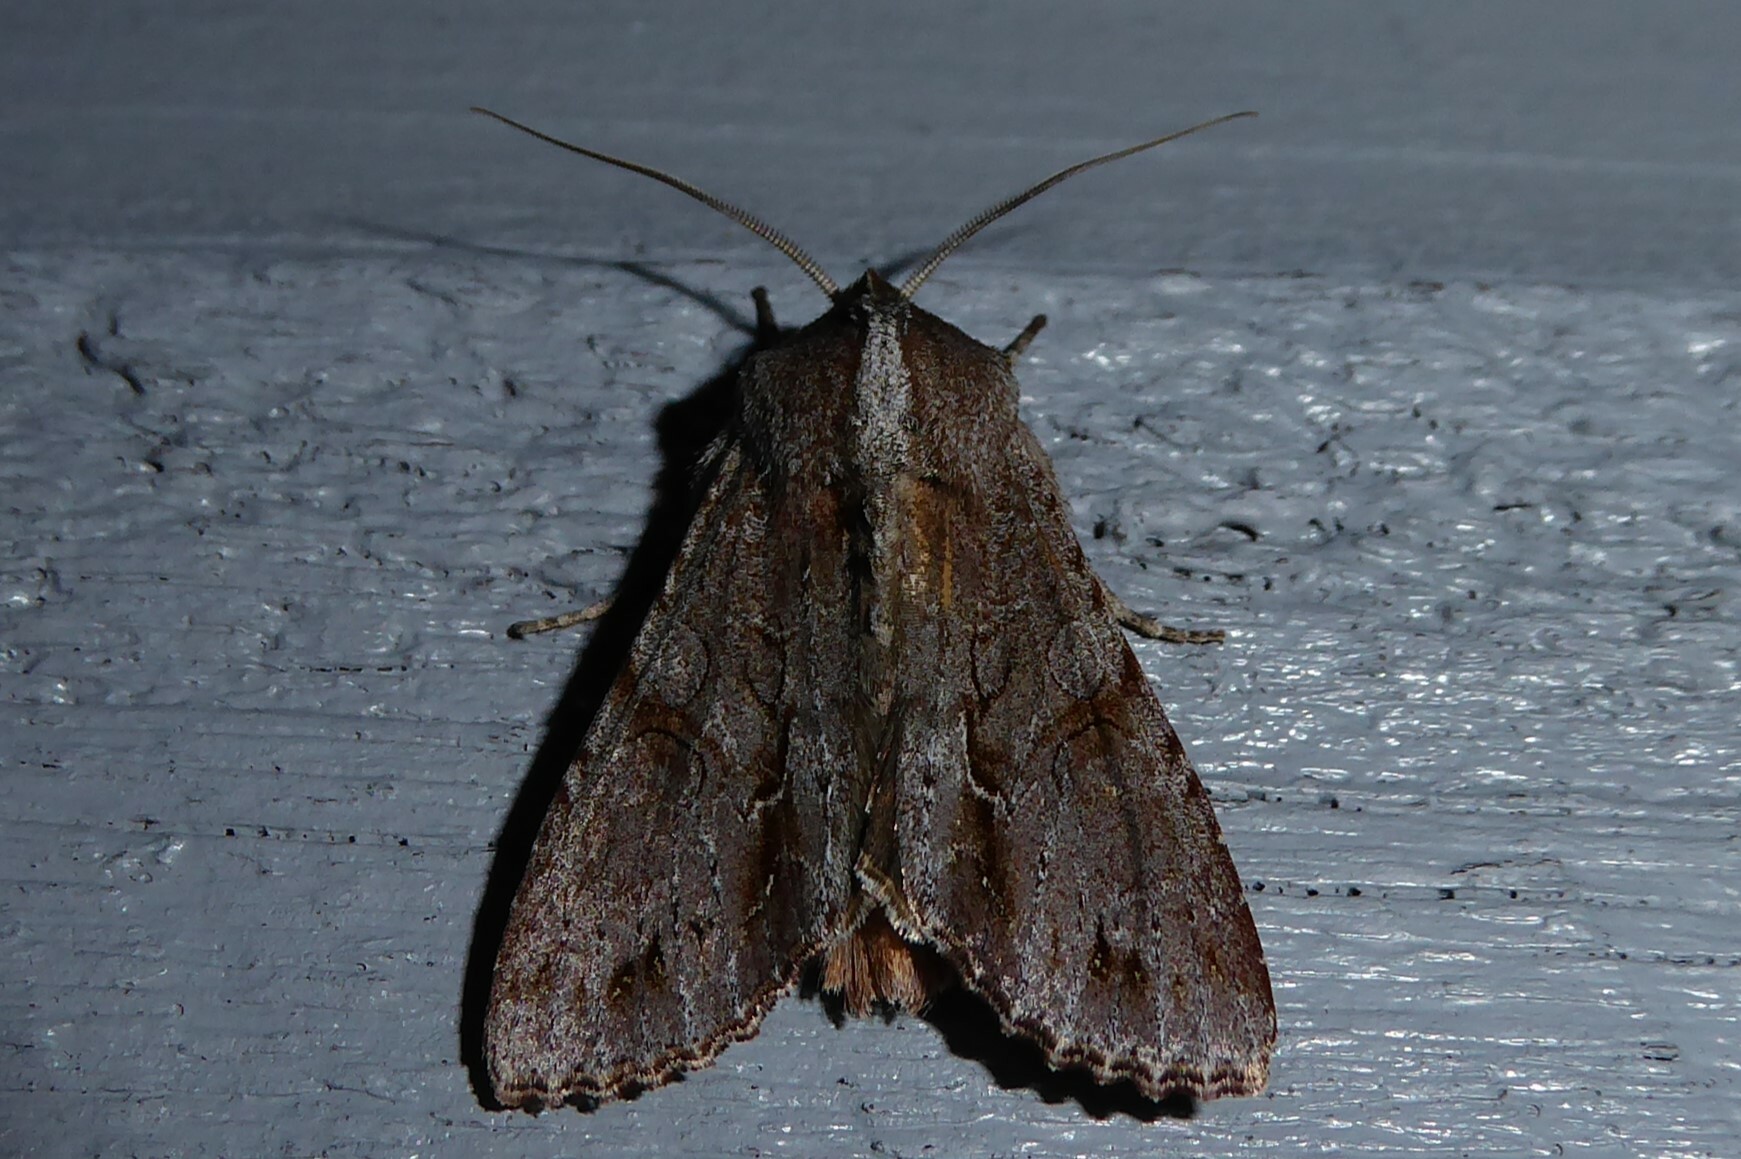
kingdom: Animalia
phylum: Arthropoda
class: Insecta
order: Lepidoptera
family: Noctuidae
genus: Ichneutica
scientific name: Ichneutica
